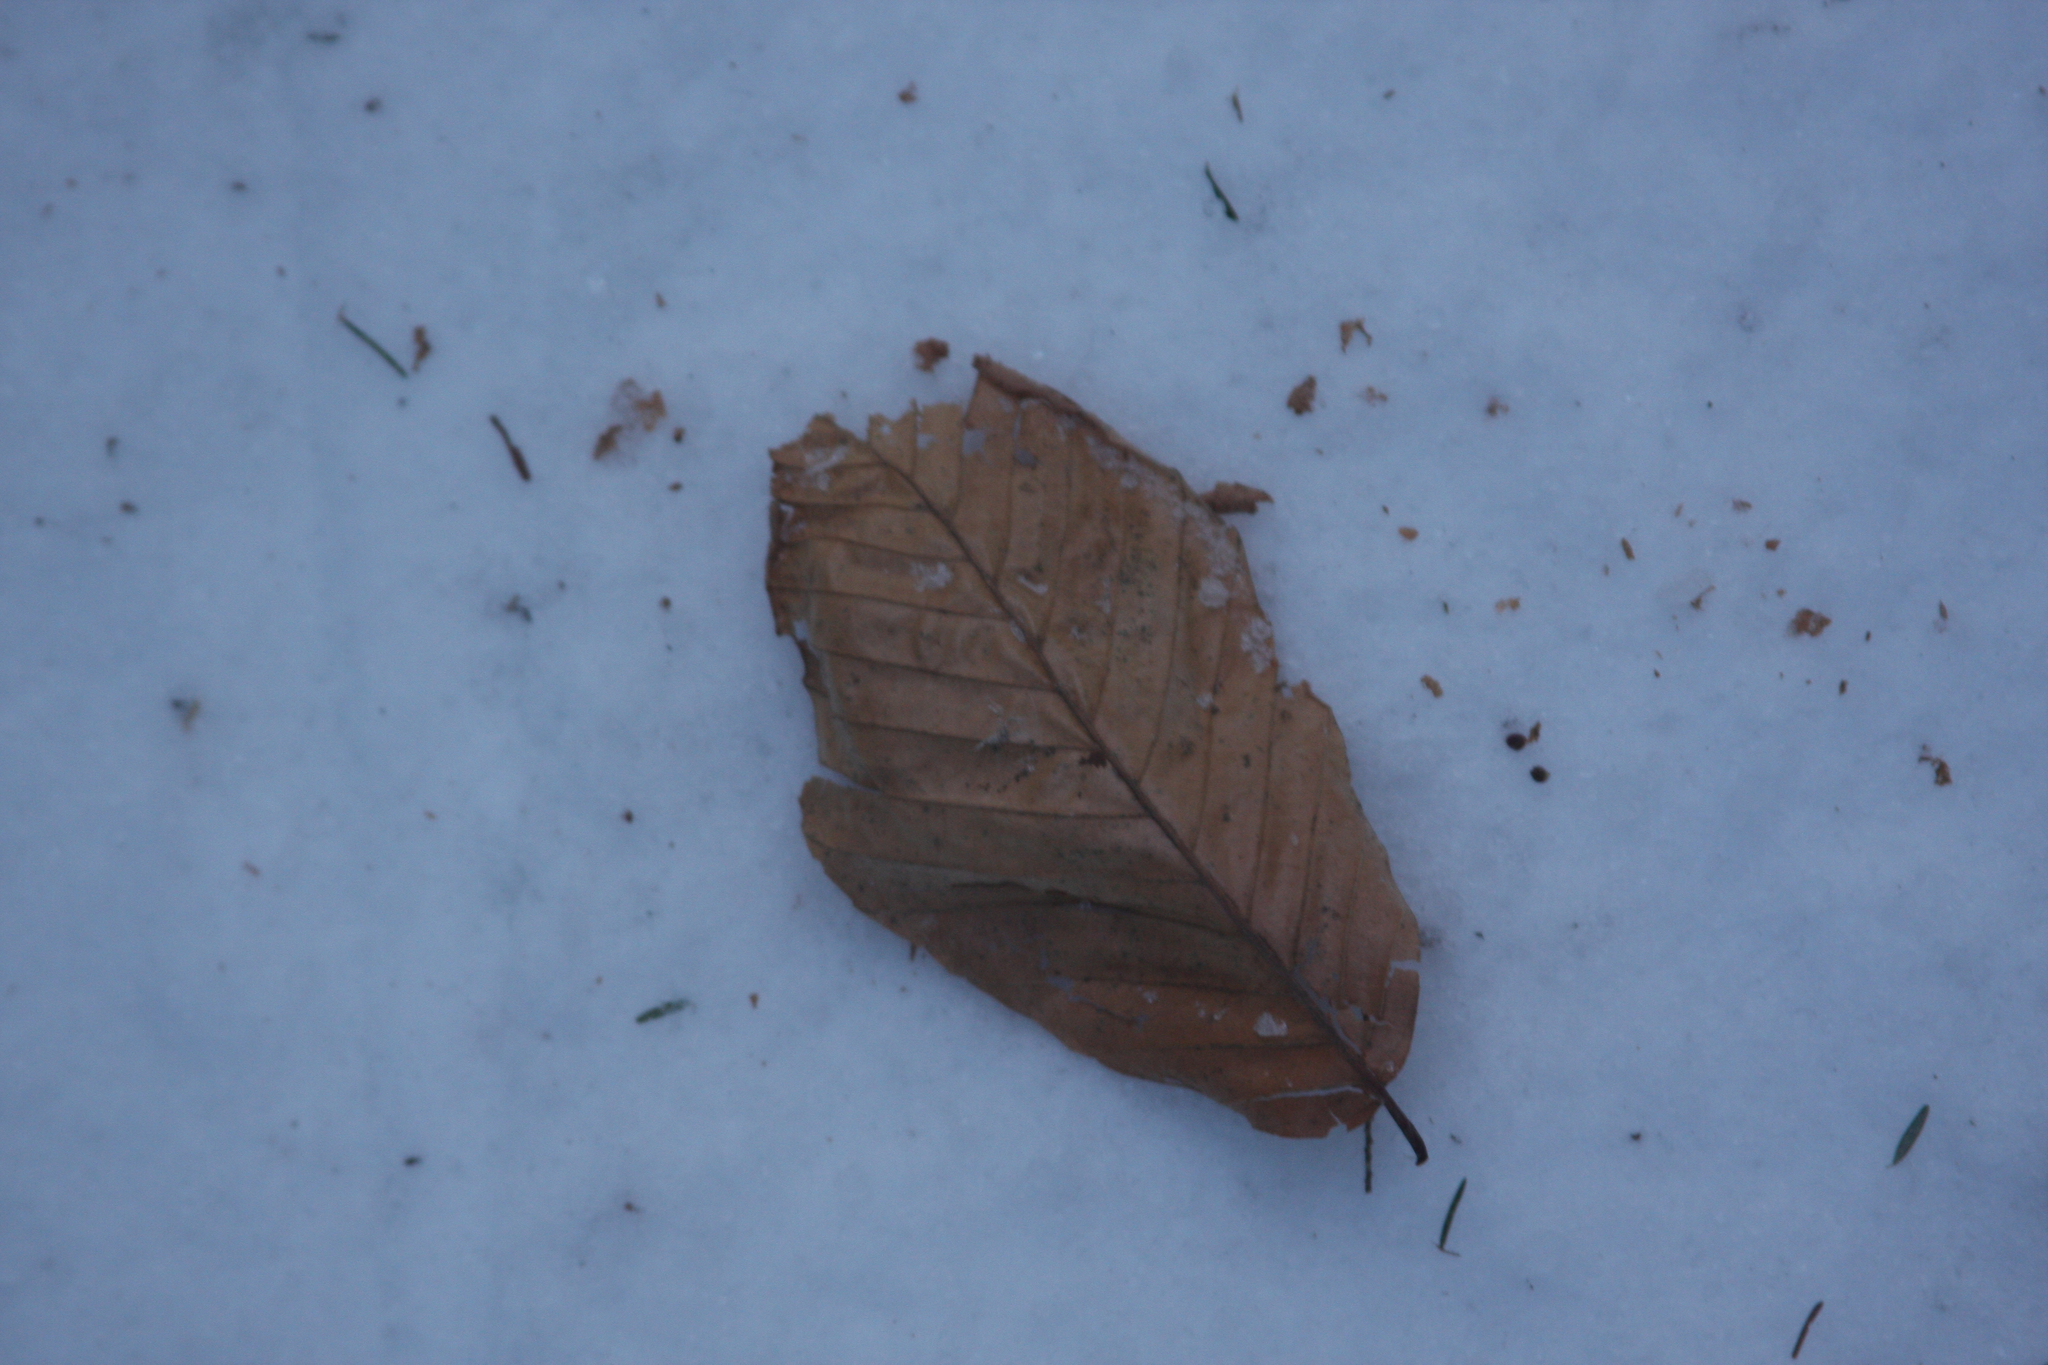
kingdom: Plantae
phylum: Tracheophyta
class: Magnoliopsida
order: Fagales
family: Fagaceae
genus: Fagus
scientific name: Fagus grandifolia
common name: American beech
